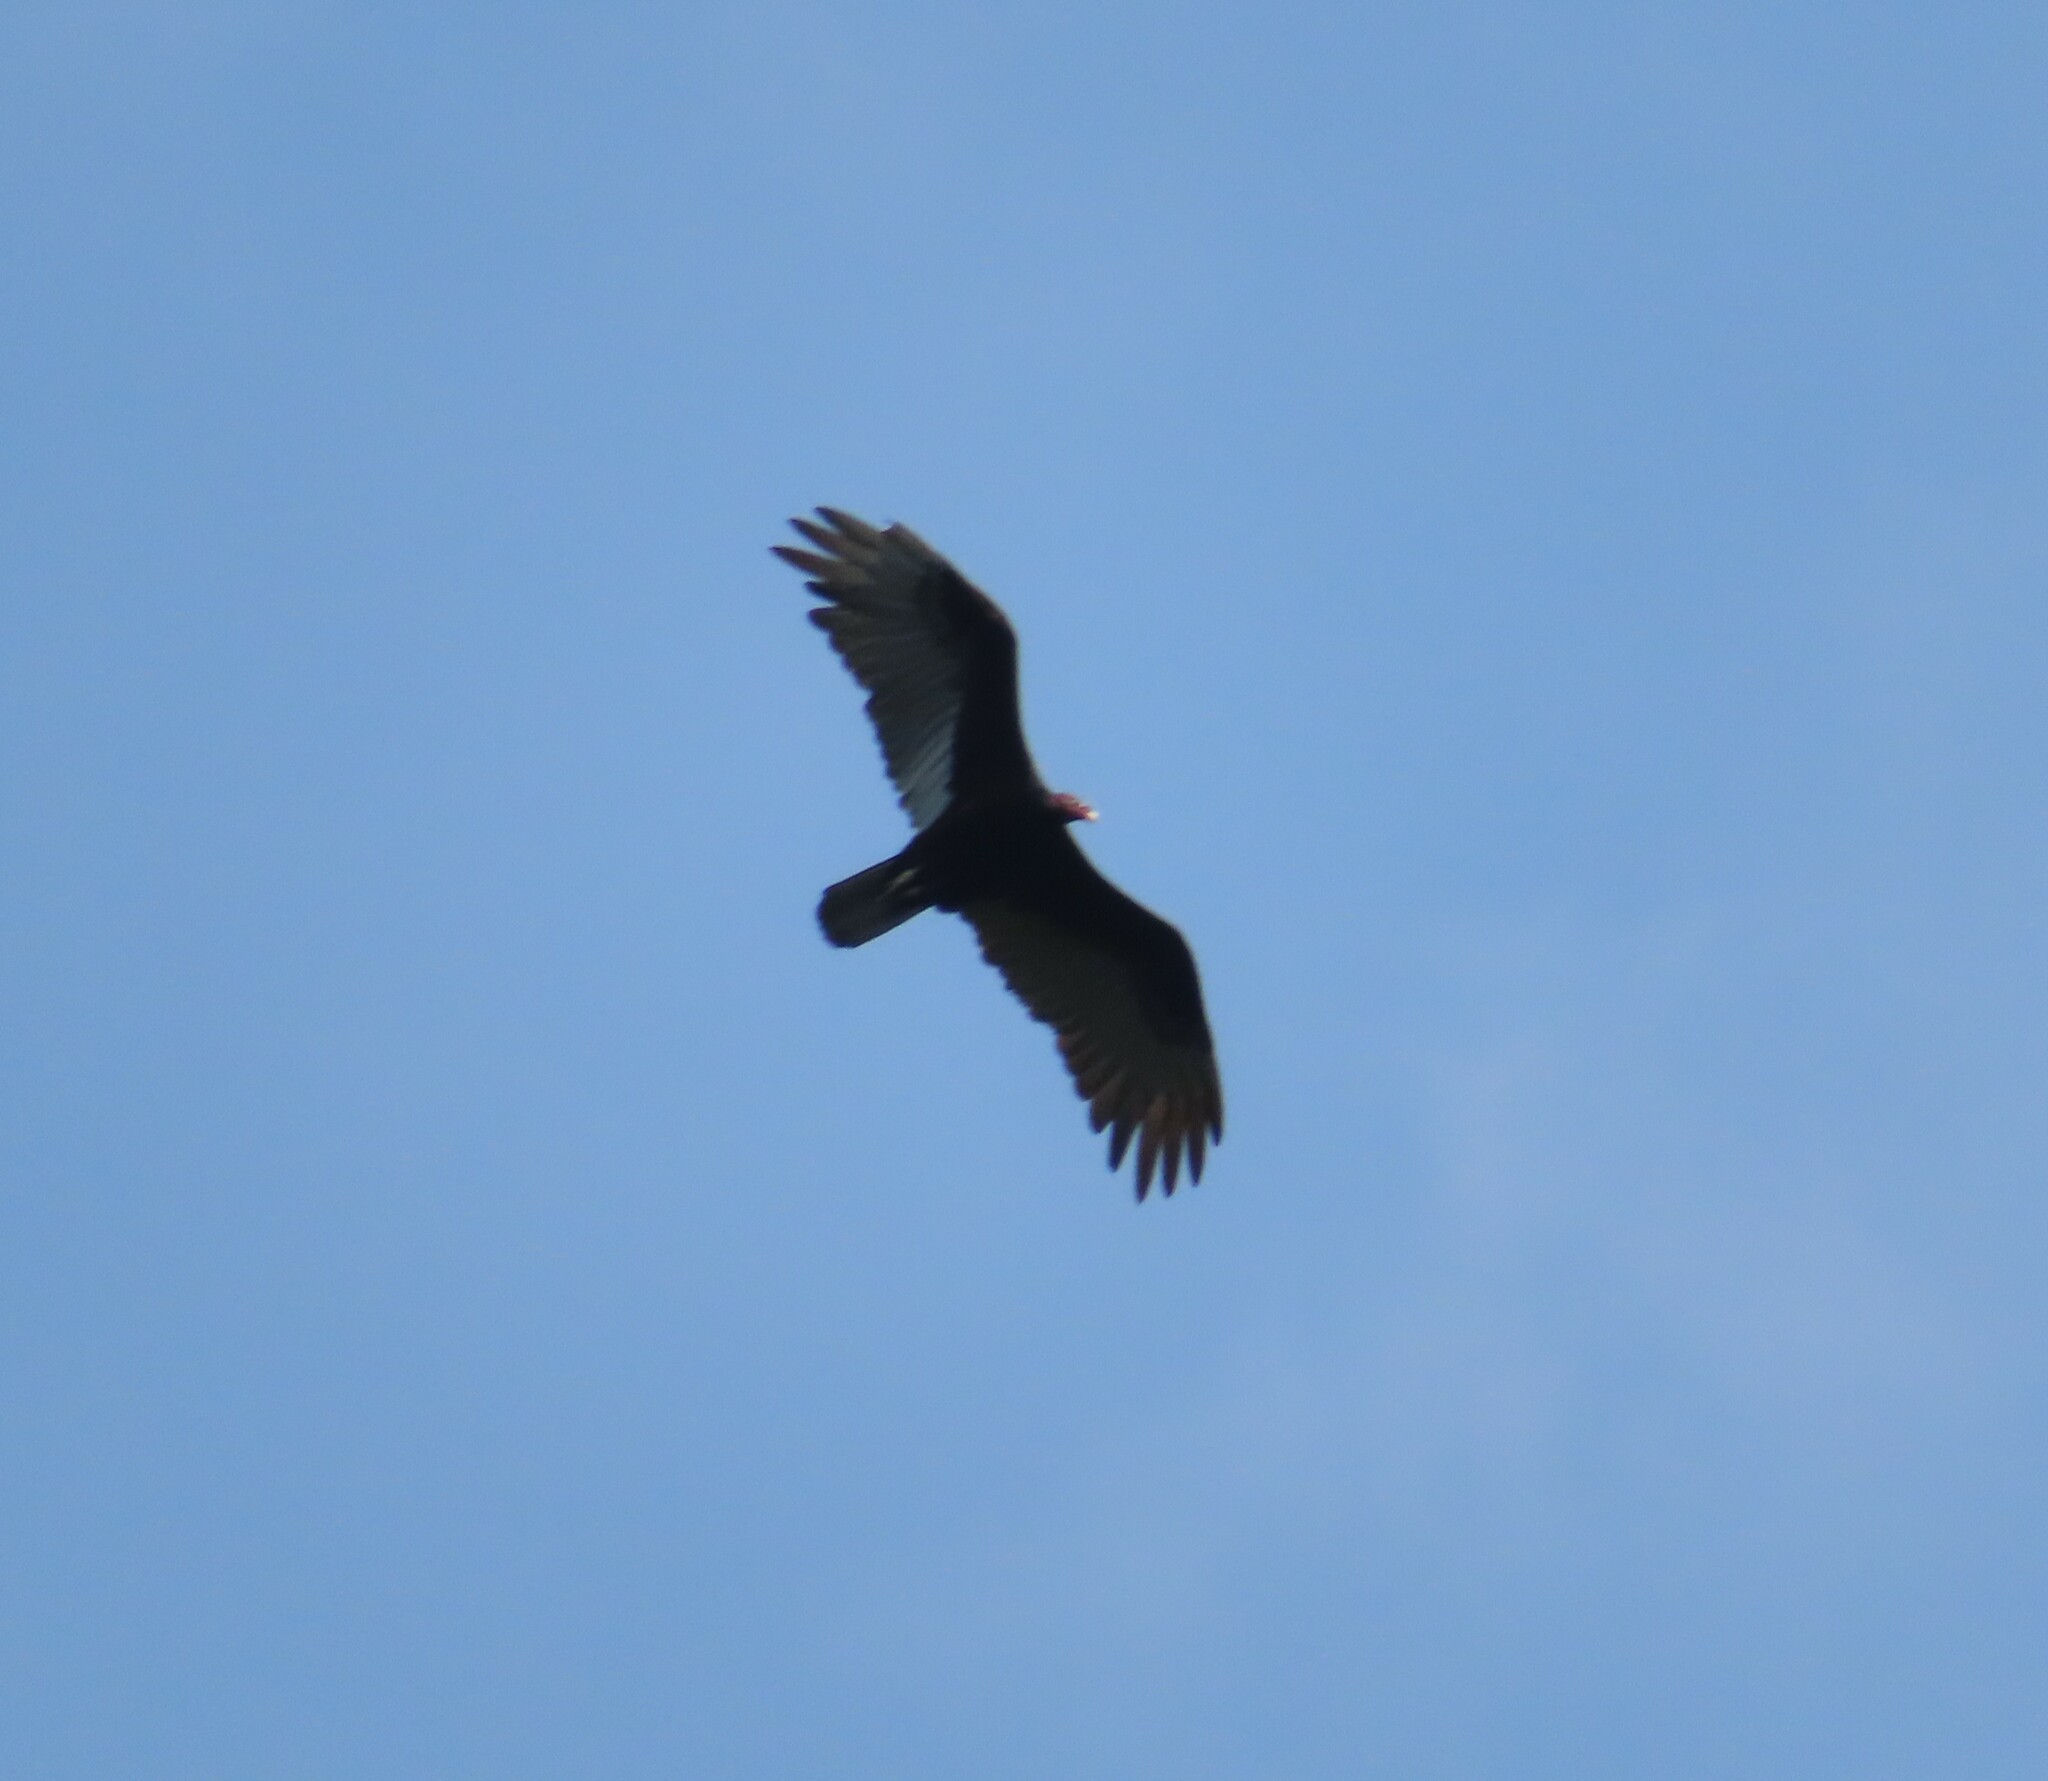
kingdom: Animalia
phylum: Chordata
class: Aves
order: Accipitriformes
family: Cathartidae
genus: Cathartes
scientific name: Cathartes aura
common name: Turkey vulture
